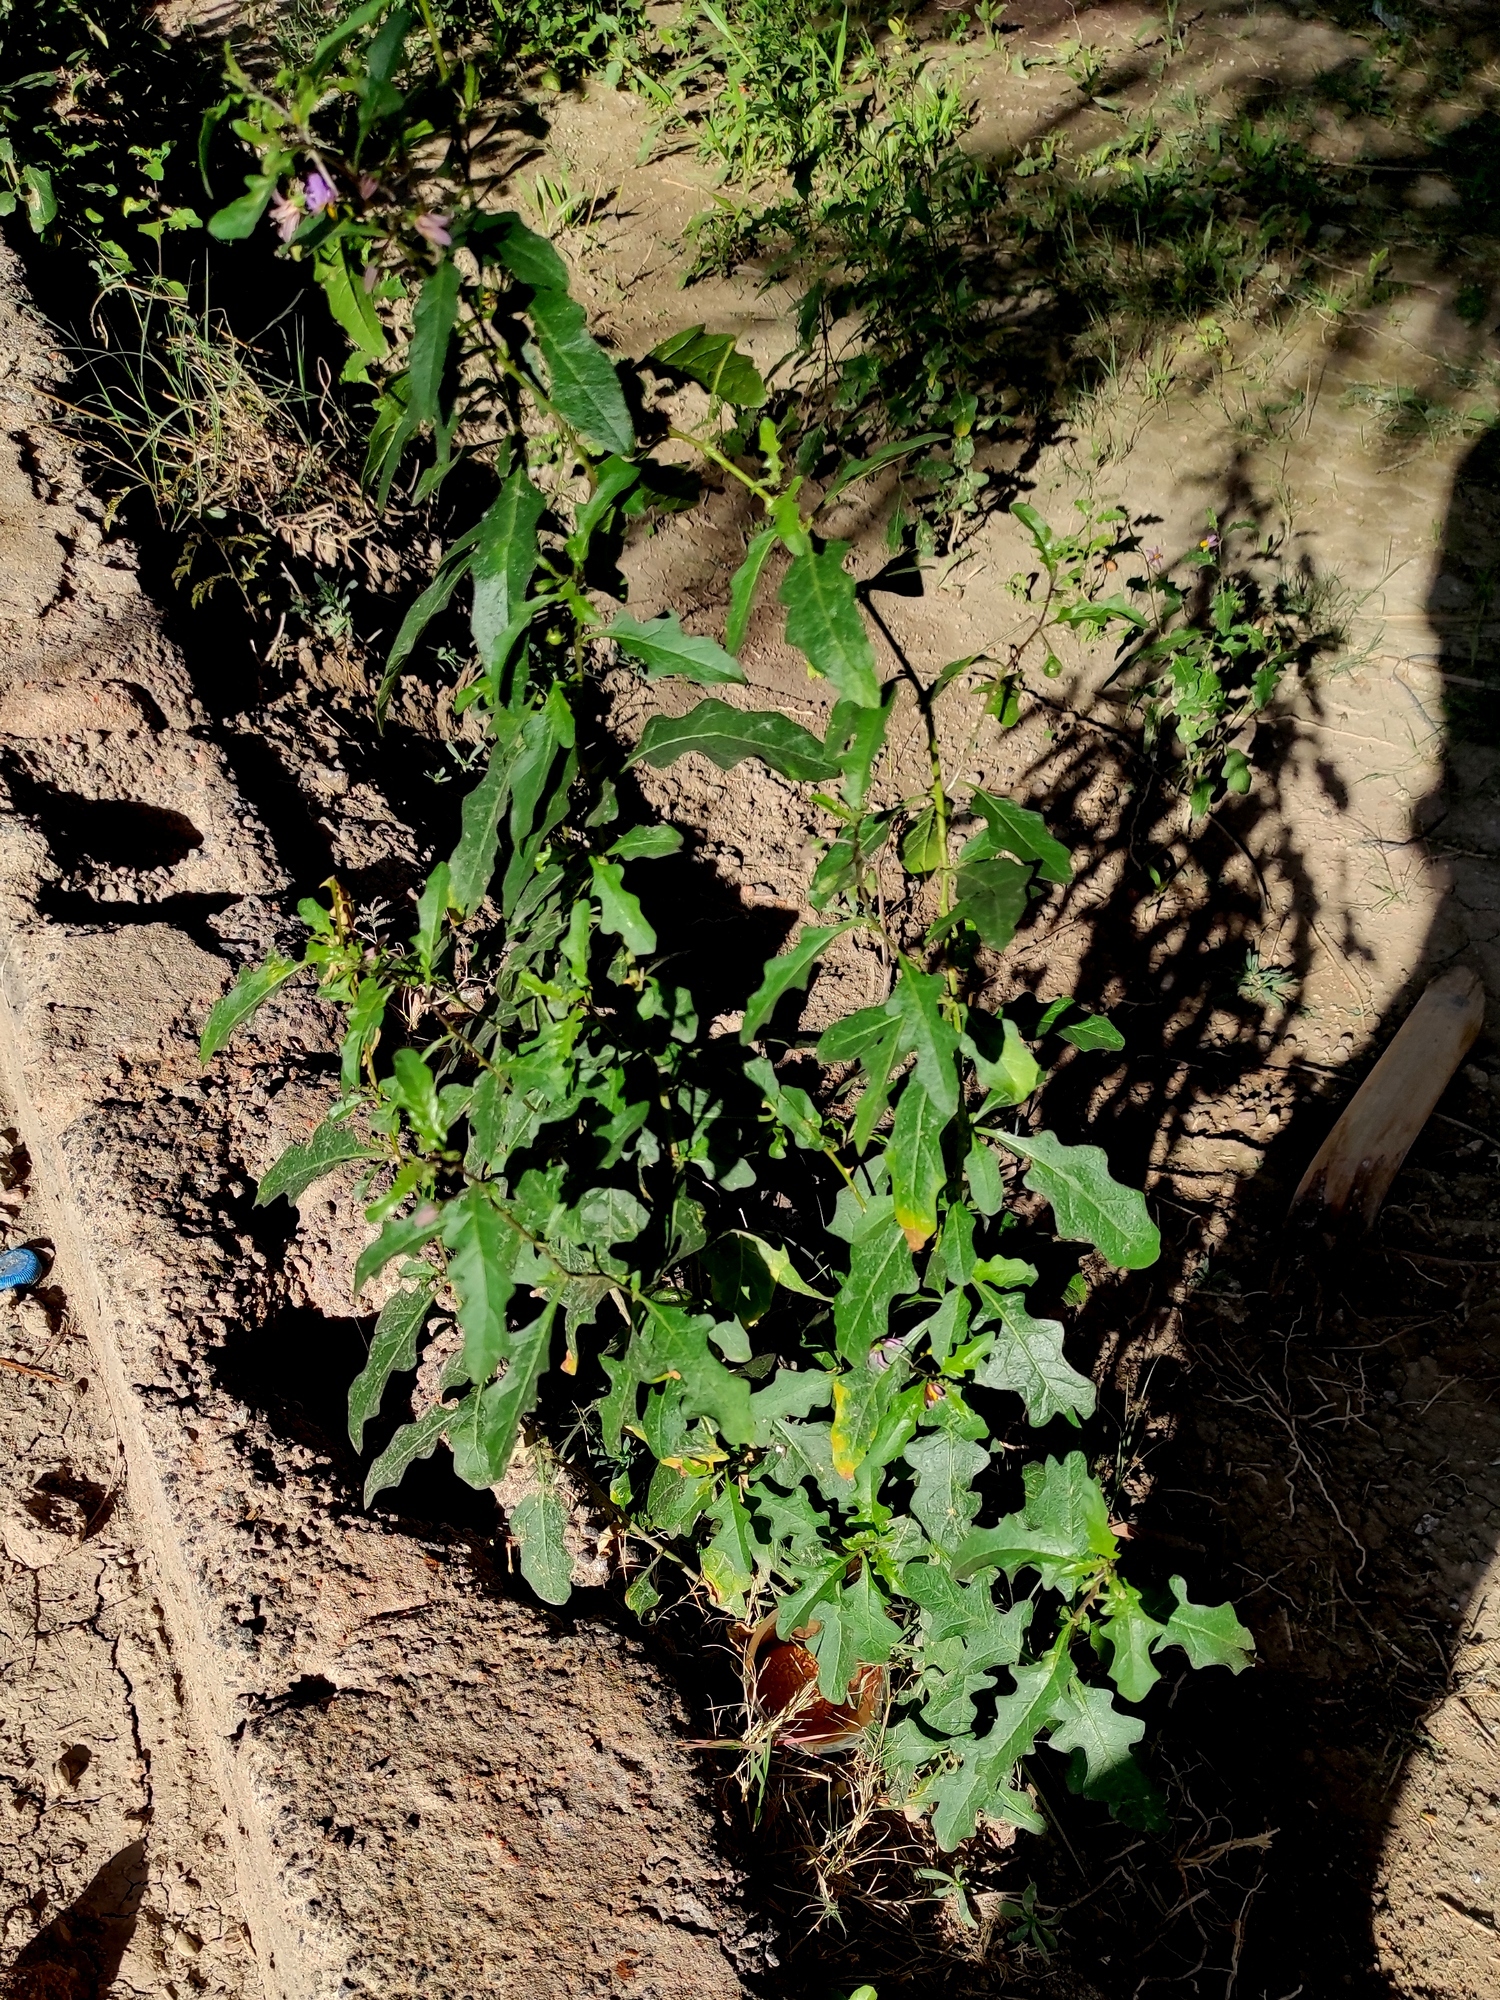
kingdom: Plantae
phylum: Tracheophyta
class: Magnoliopsida
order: Solanales
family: Solanaceae
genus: Solanum
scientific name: Solanum glabratum
